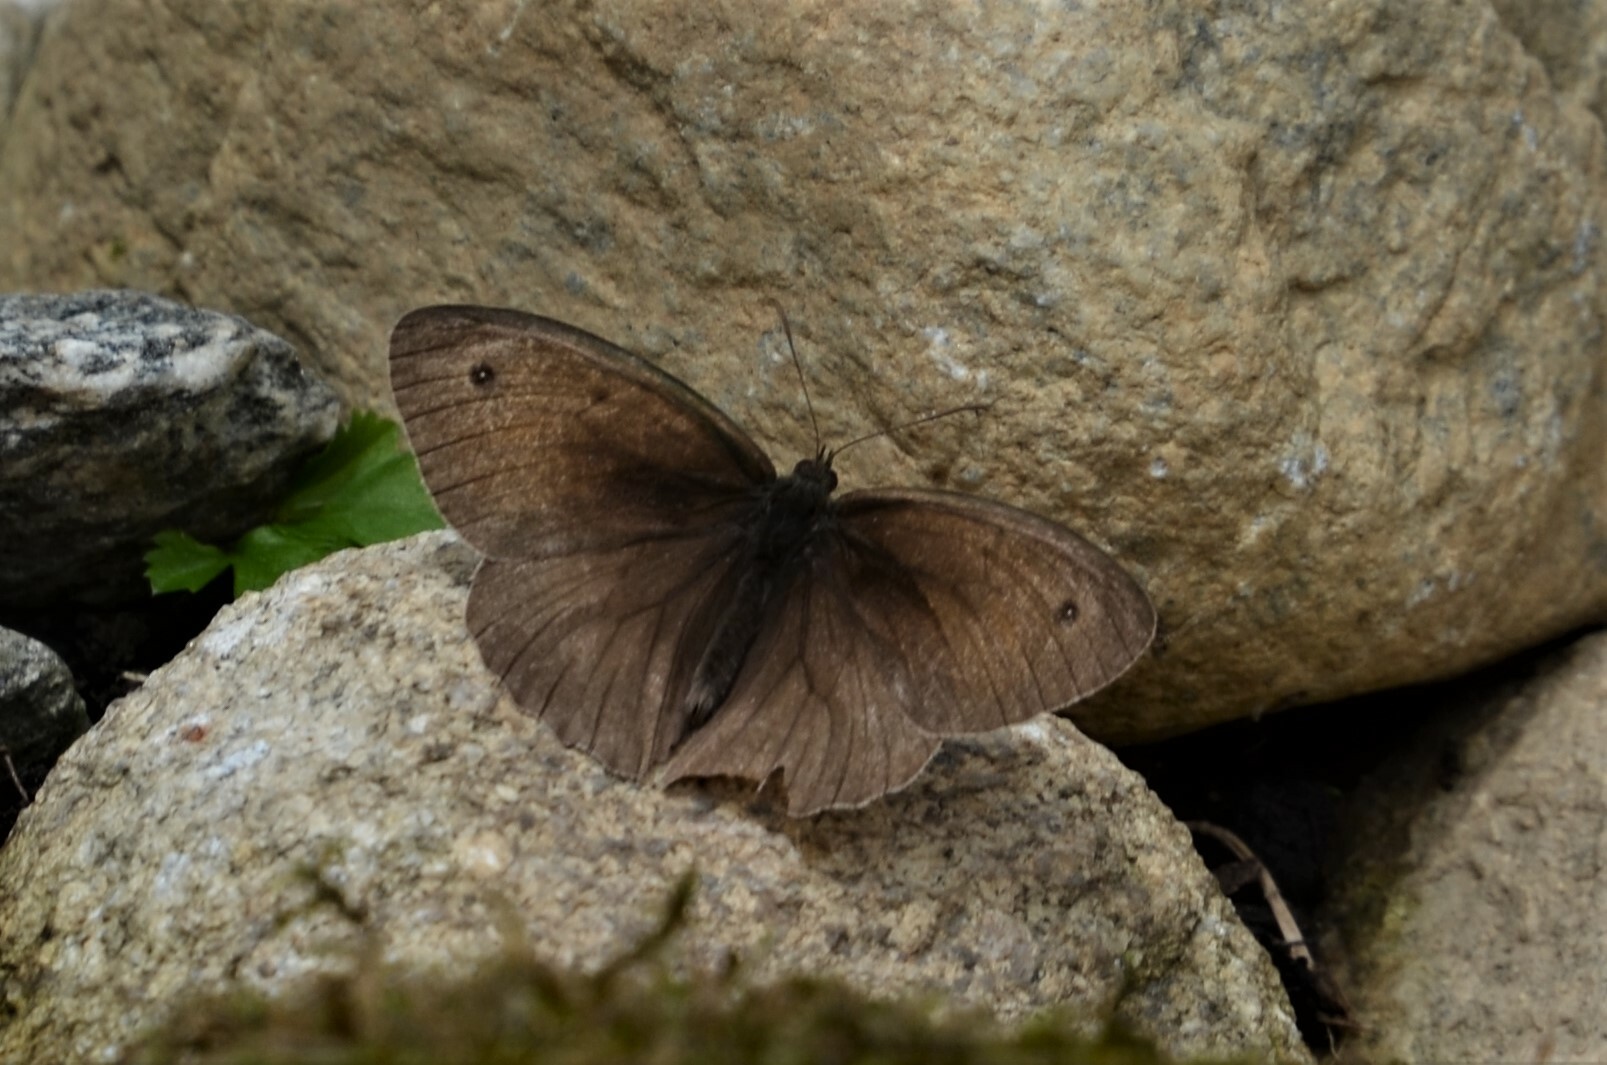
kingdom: Animalia
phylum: Arthropoda
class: Insecta
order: Lepidoptera
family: Nymphalidae
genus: Maniola
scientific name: Maniola jurtina
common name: Meadow brown
